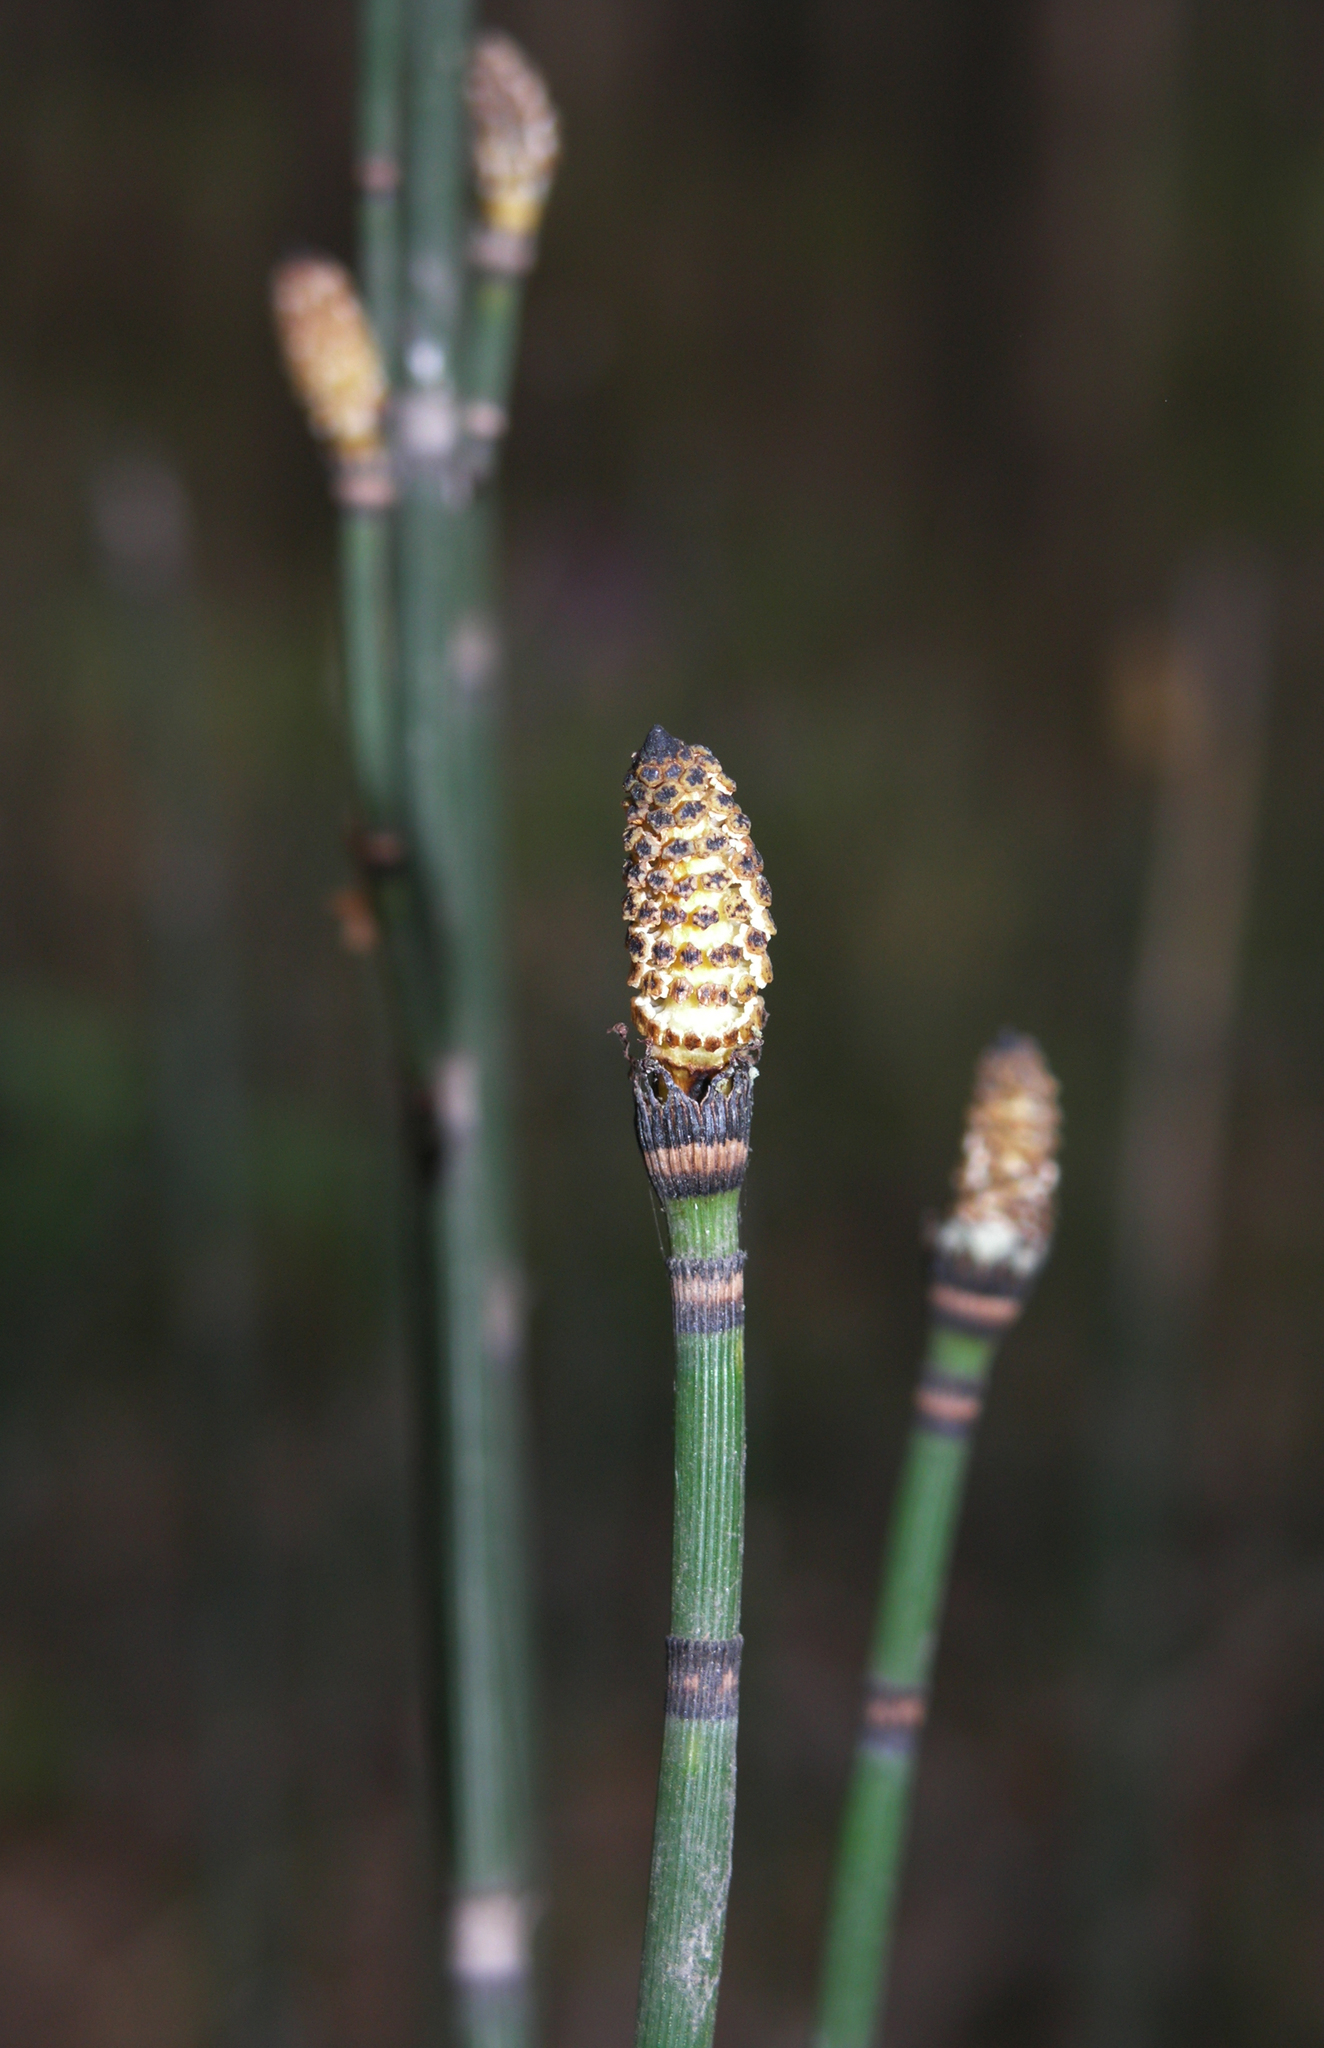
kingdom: Plantae
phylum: Tracheophyta
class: Polypodiopsida
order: Equisetales
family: Equisetaceae
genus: Equisetum
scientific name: Equisetum hyemale
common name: Rough horsetail
